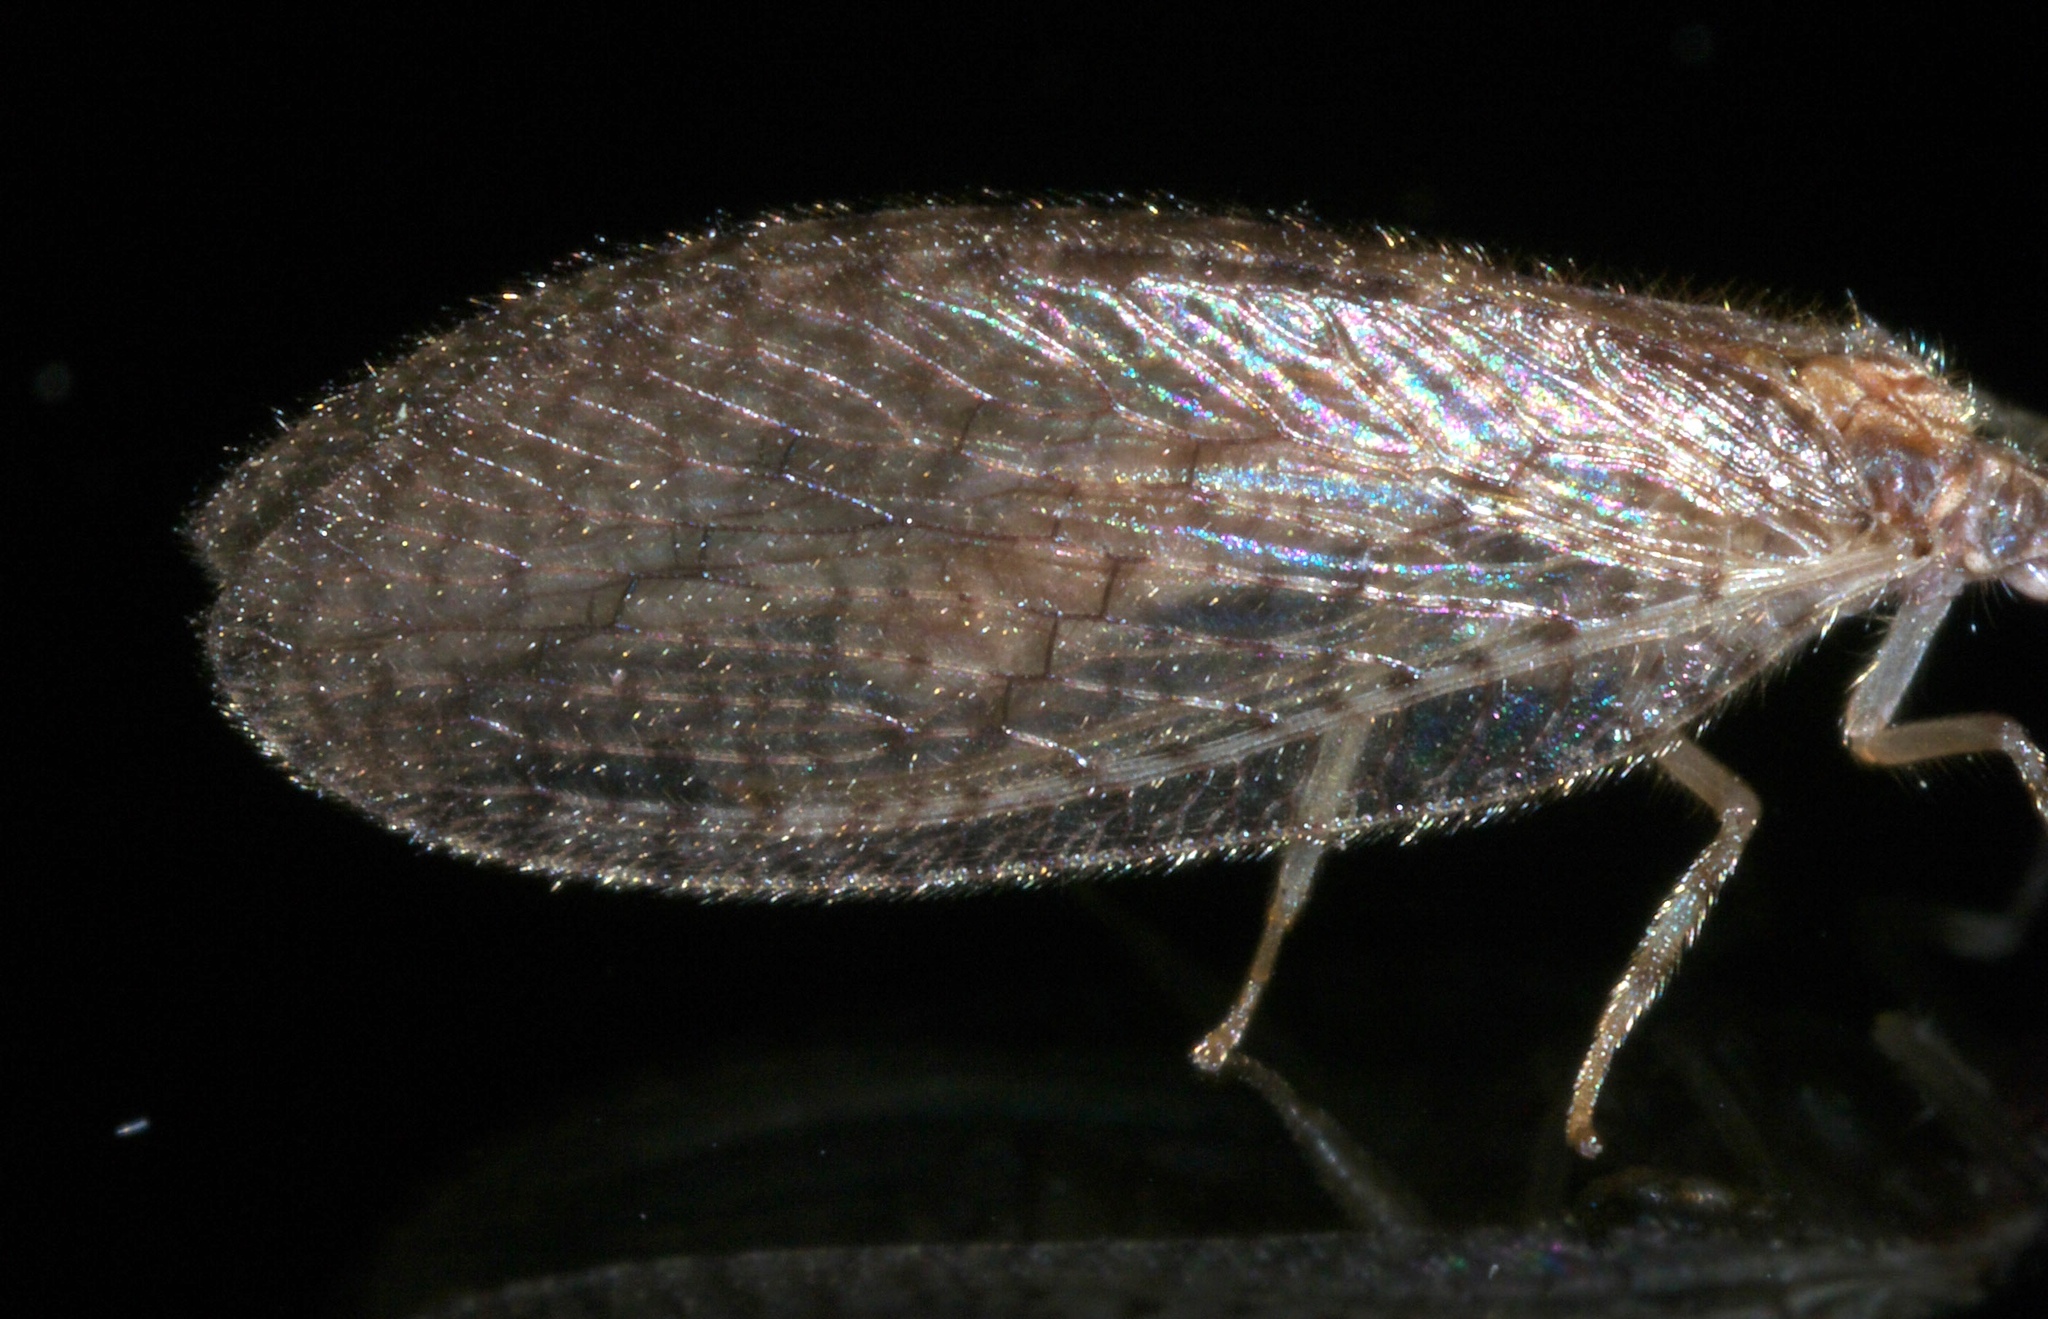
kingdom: Animalia
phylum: Arthropoda
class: Insecta
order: Neuroptera
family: Hemerobiidae
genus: Micromus
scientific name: Micromus posticus
